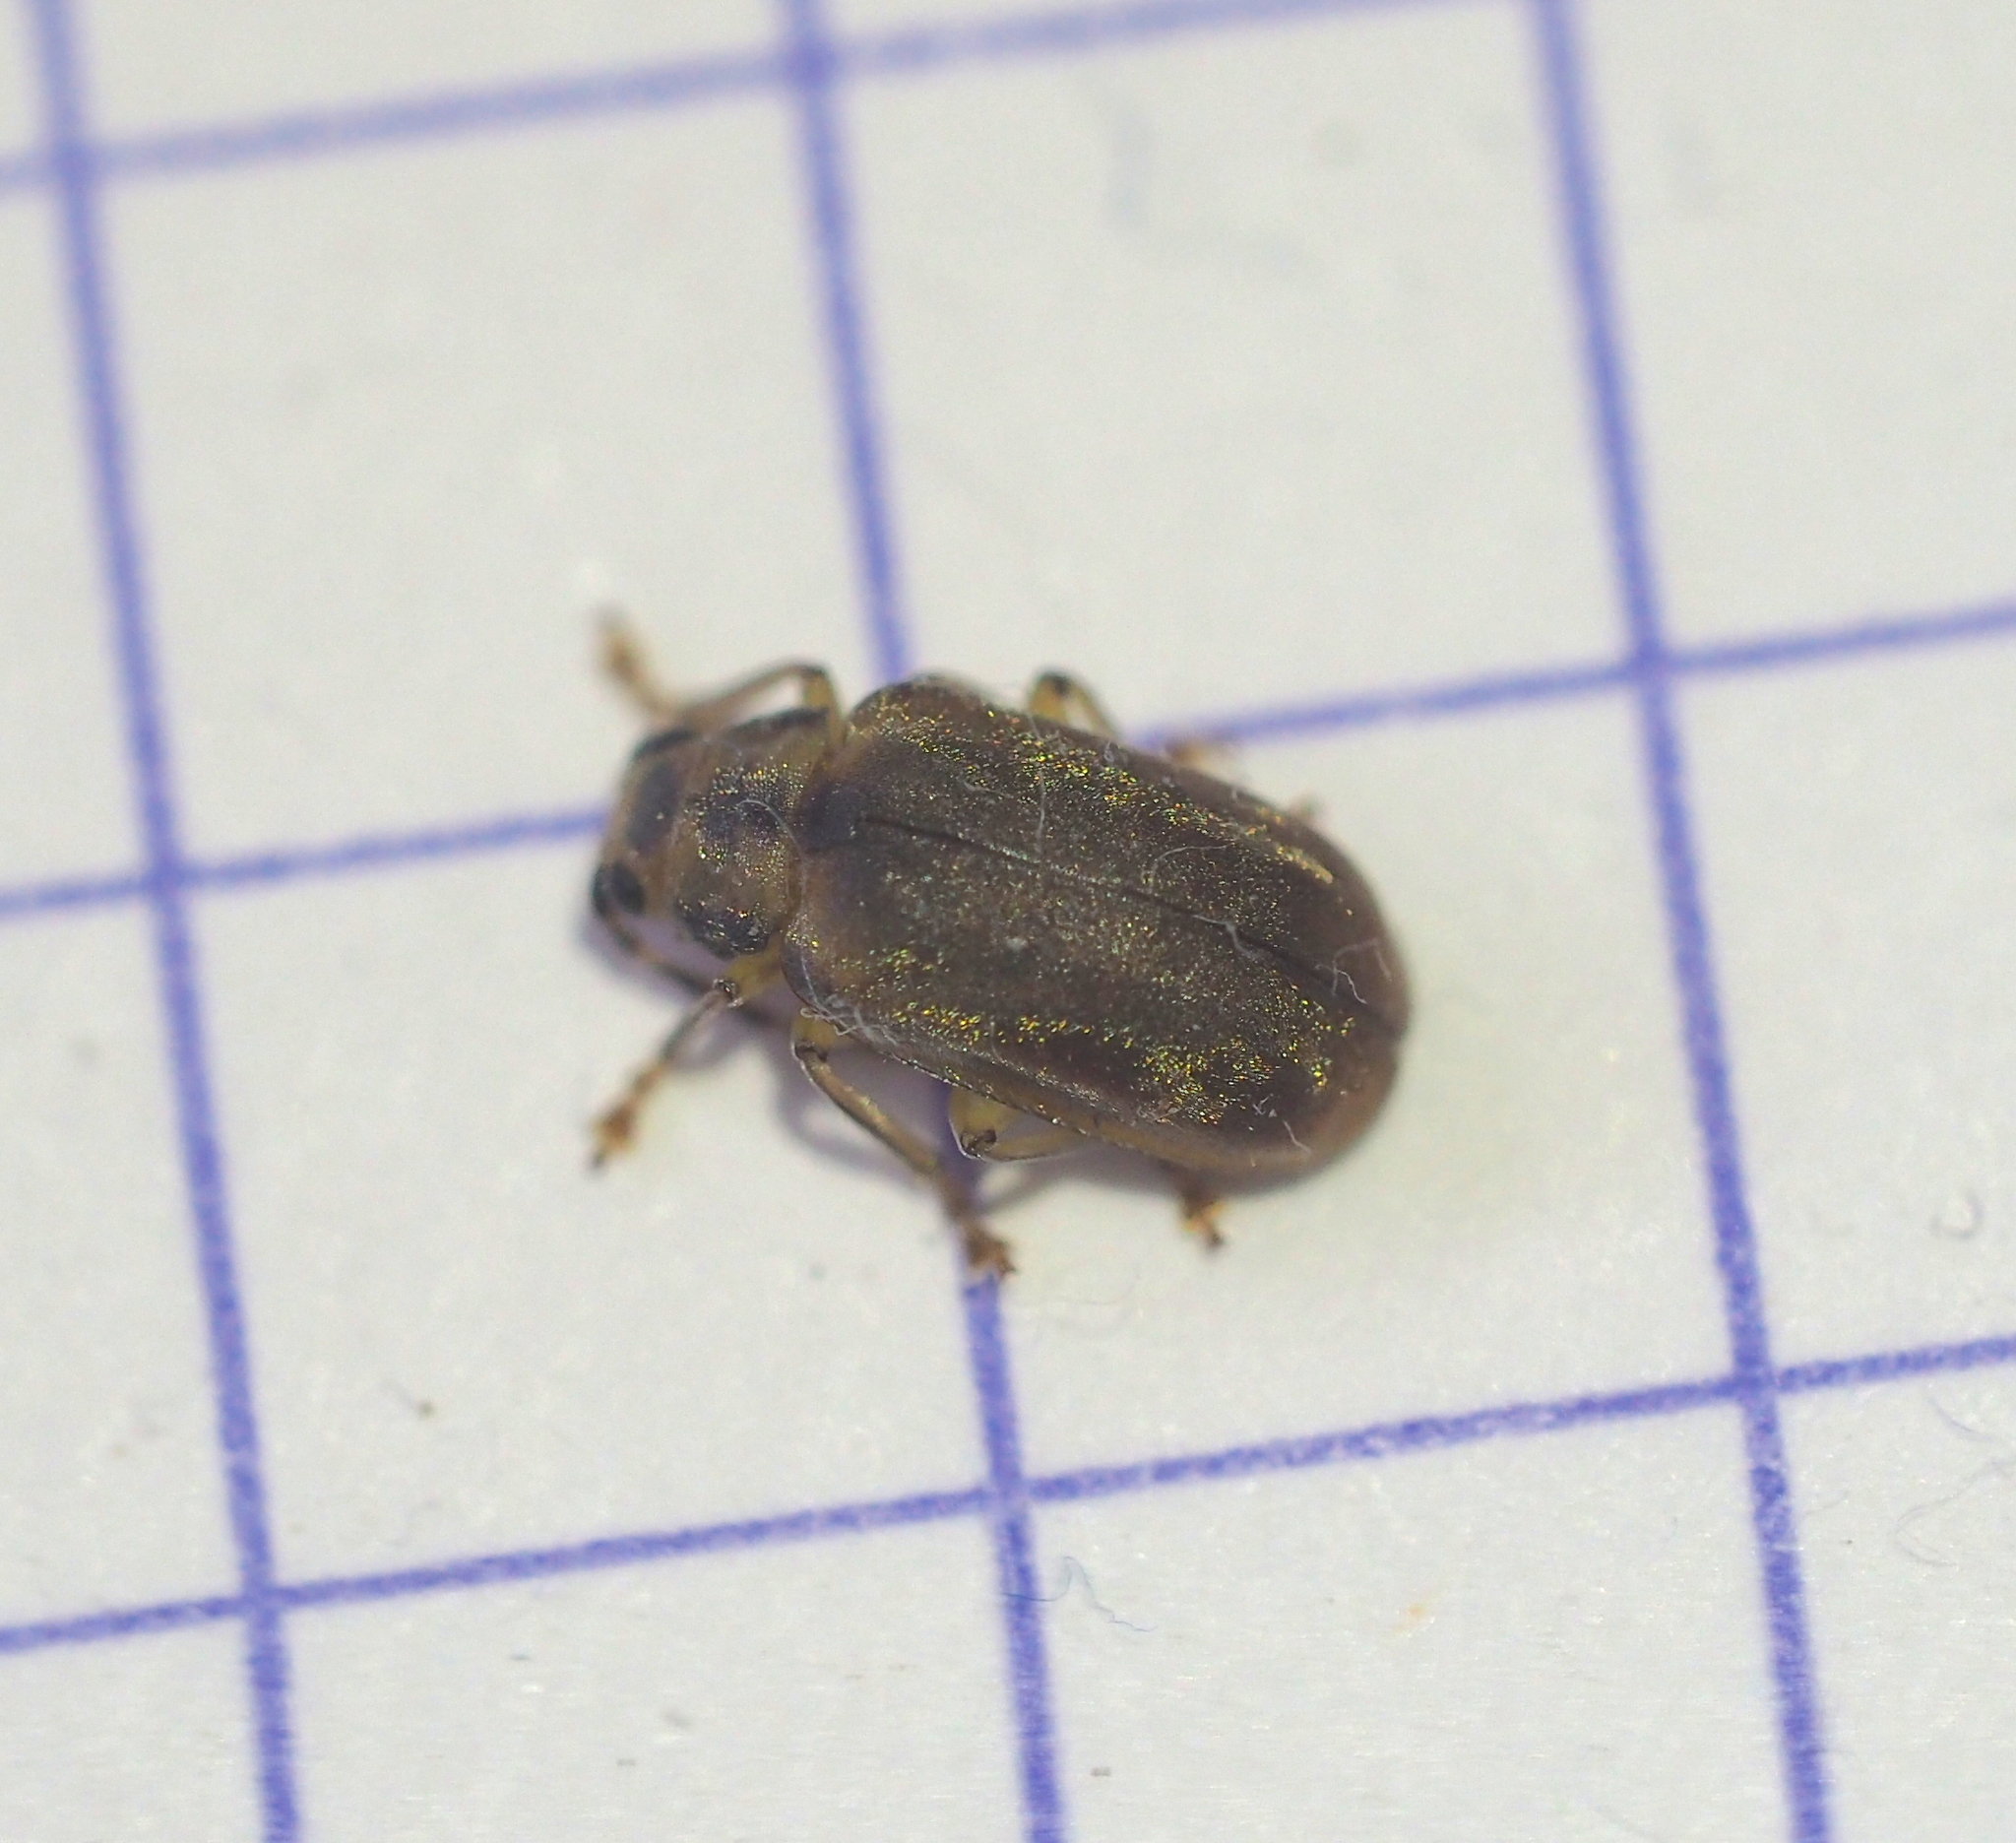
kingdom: Animalia
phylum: Arthropoda
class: Insecta
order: Coleoptera
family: Chrysomelidae
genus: Pyrrhalta
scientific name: Pyrrhalta viburni
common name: Guelder-rose leaf beetle
